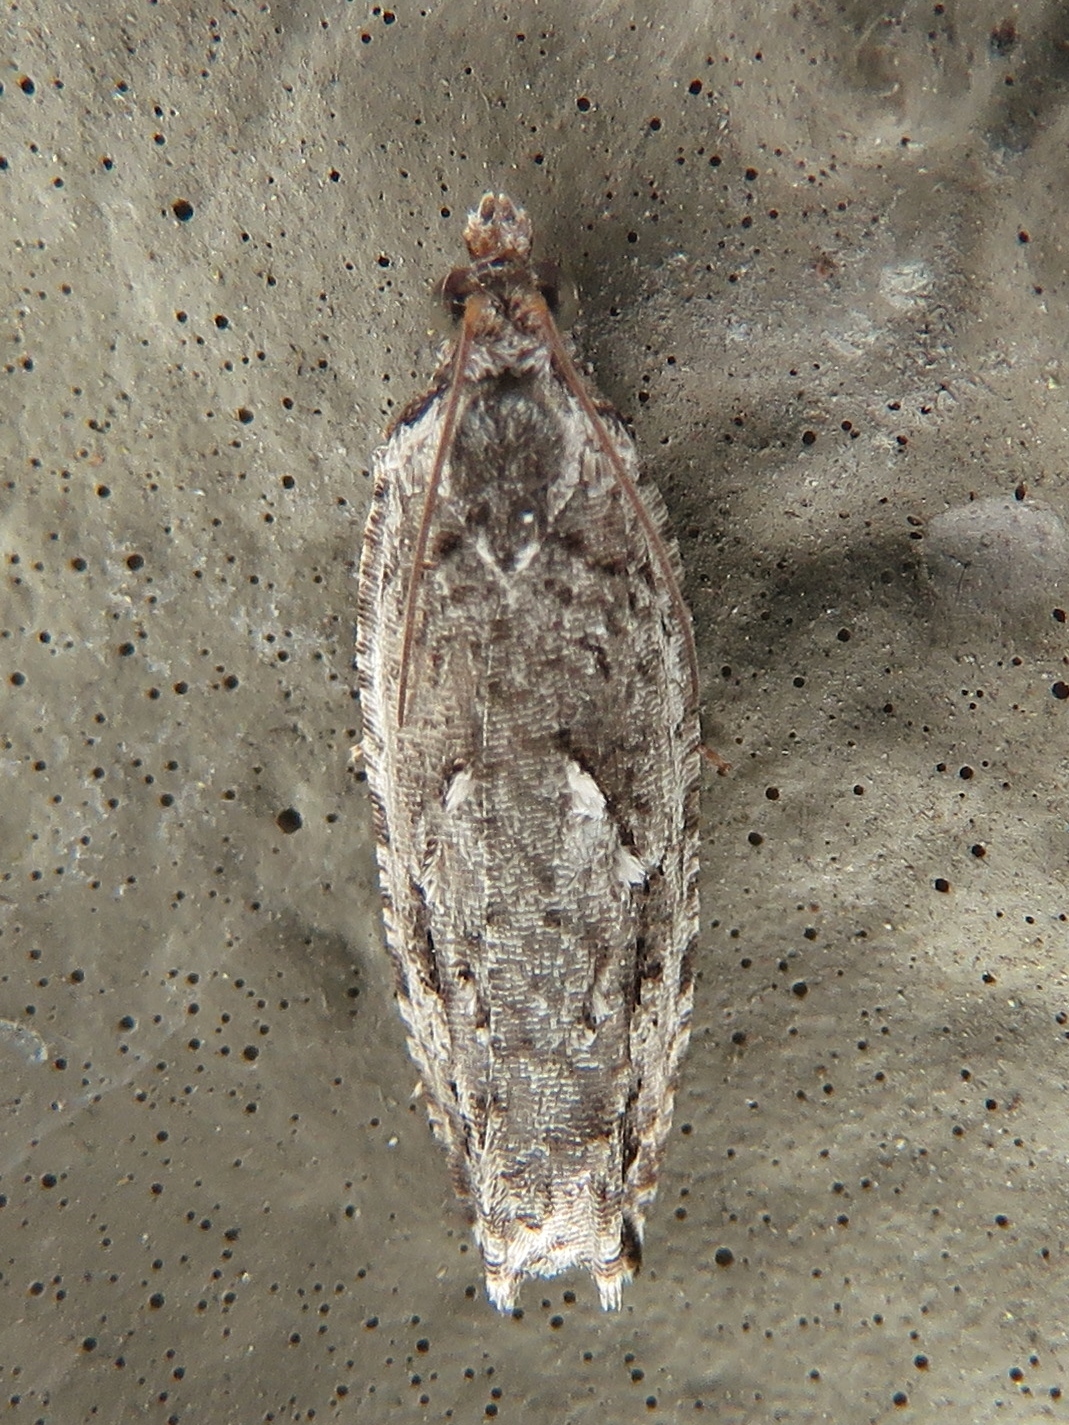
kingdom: Animalia
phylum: Arthropoda
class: Insecta
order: Lepidoptera
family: Tortricidae
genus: Gretchena
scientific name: Gretchena bolliana
